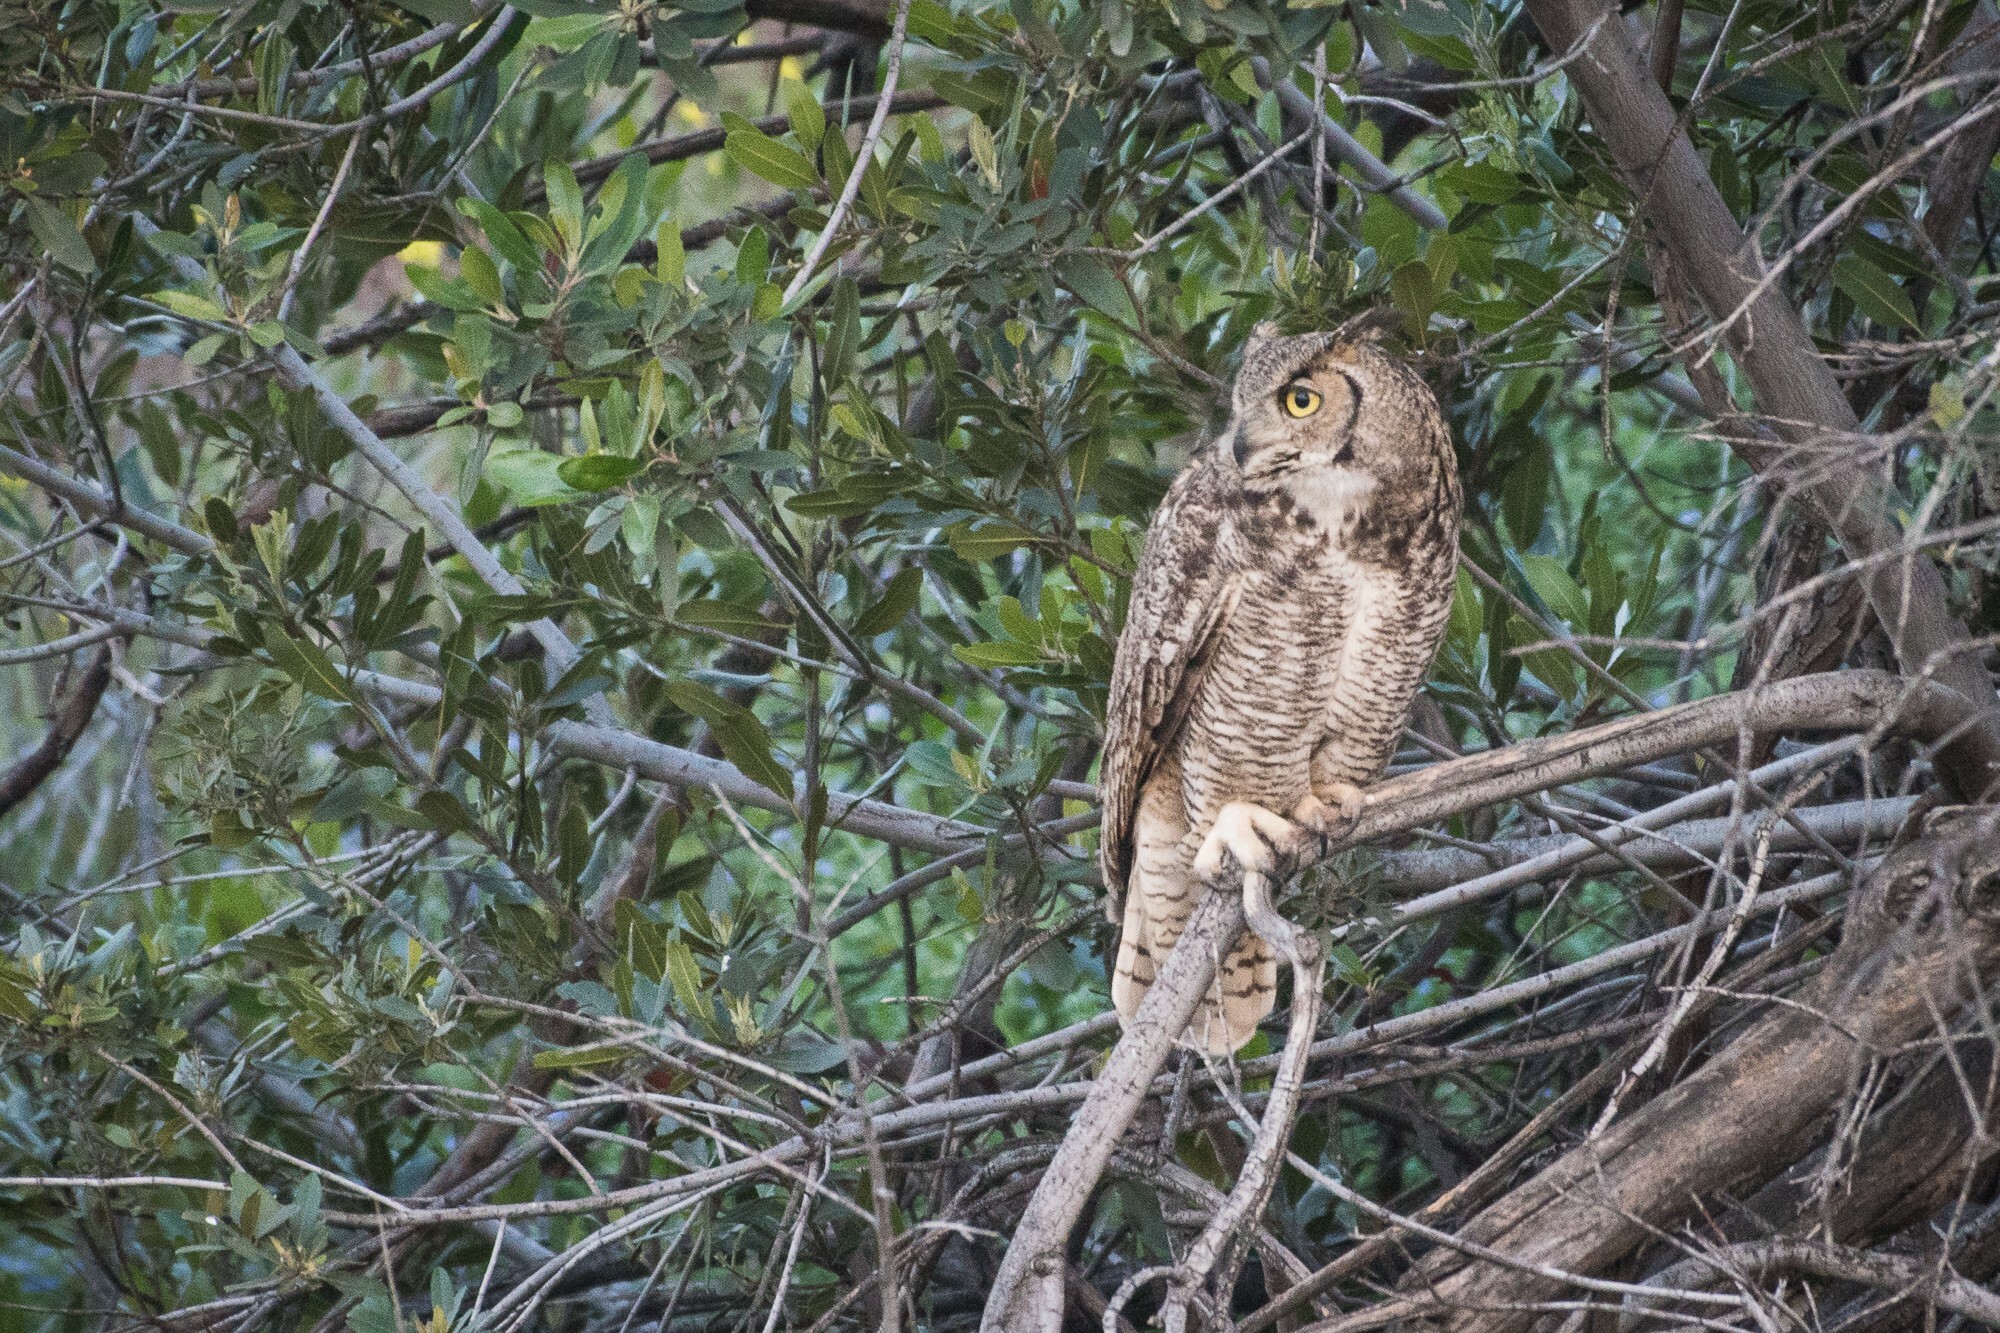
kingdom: Animalia
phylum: Chordata
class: Aves
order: Strigiformes
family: Strigidae
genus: Bubo
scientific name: Bubo virginianus
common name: Great horned owl
